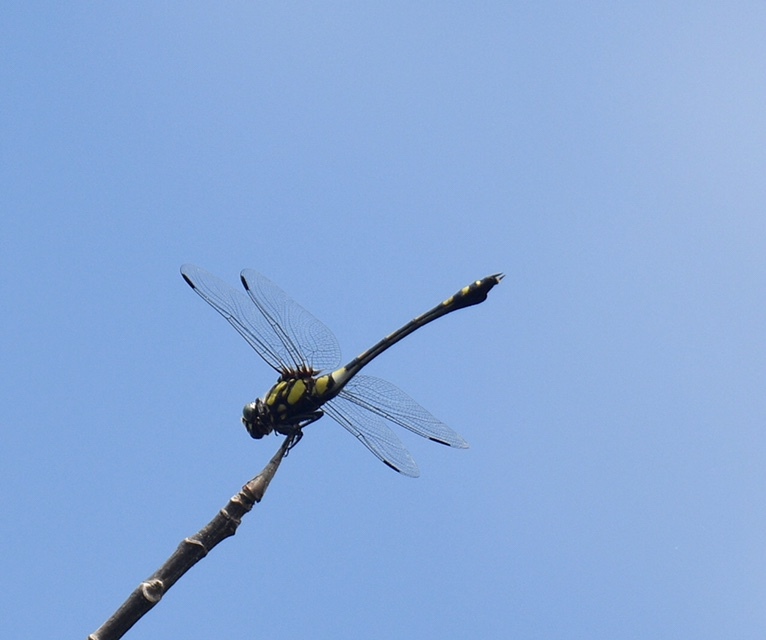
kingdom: Animalia
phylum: Arthropoda
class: Insecta
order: Odonata
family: Gomphidae
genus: Ictinogomphus
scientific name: Ictinogomphus rapax
